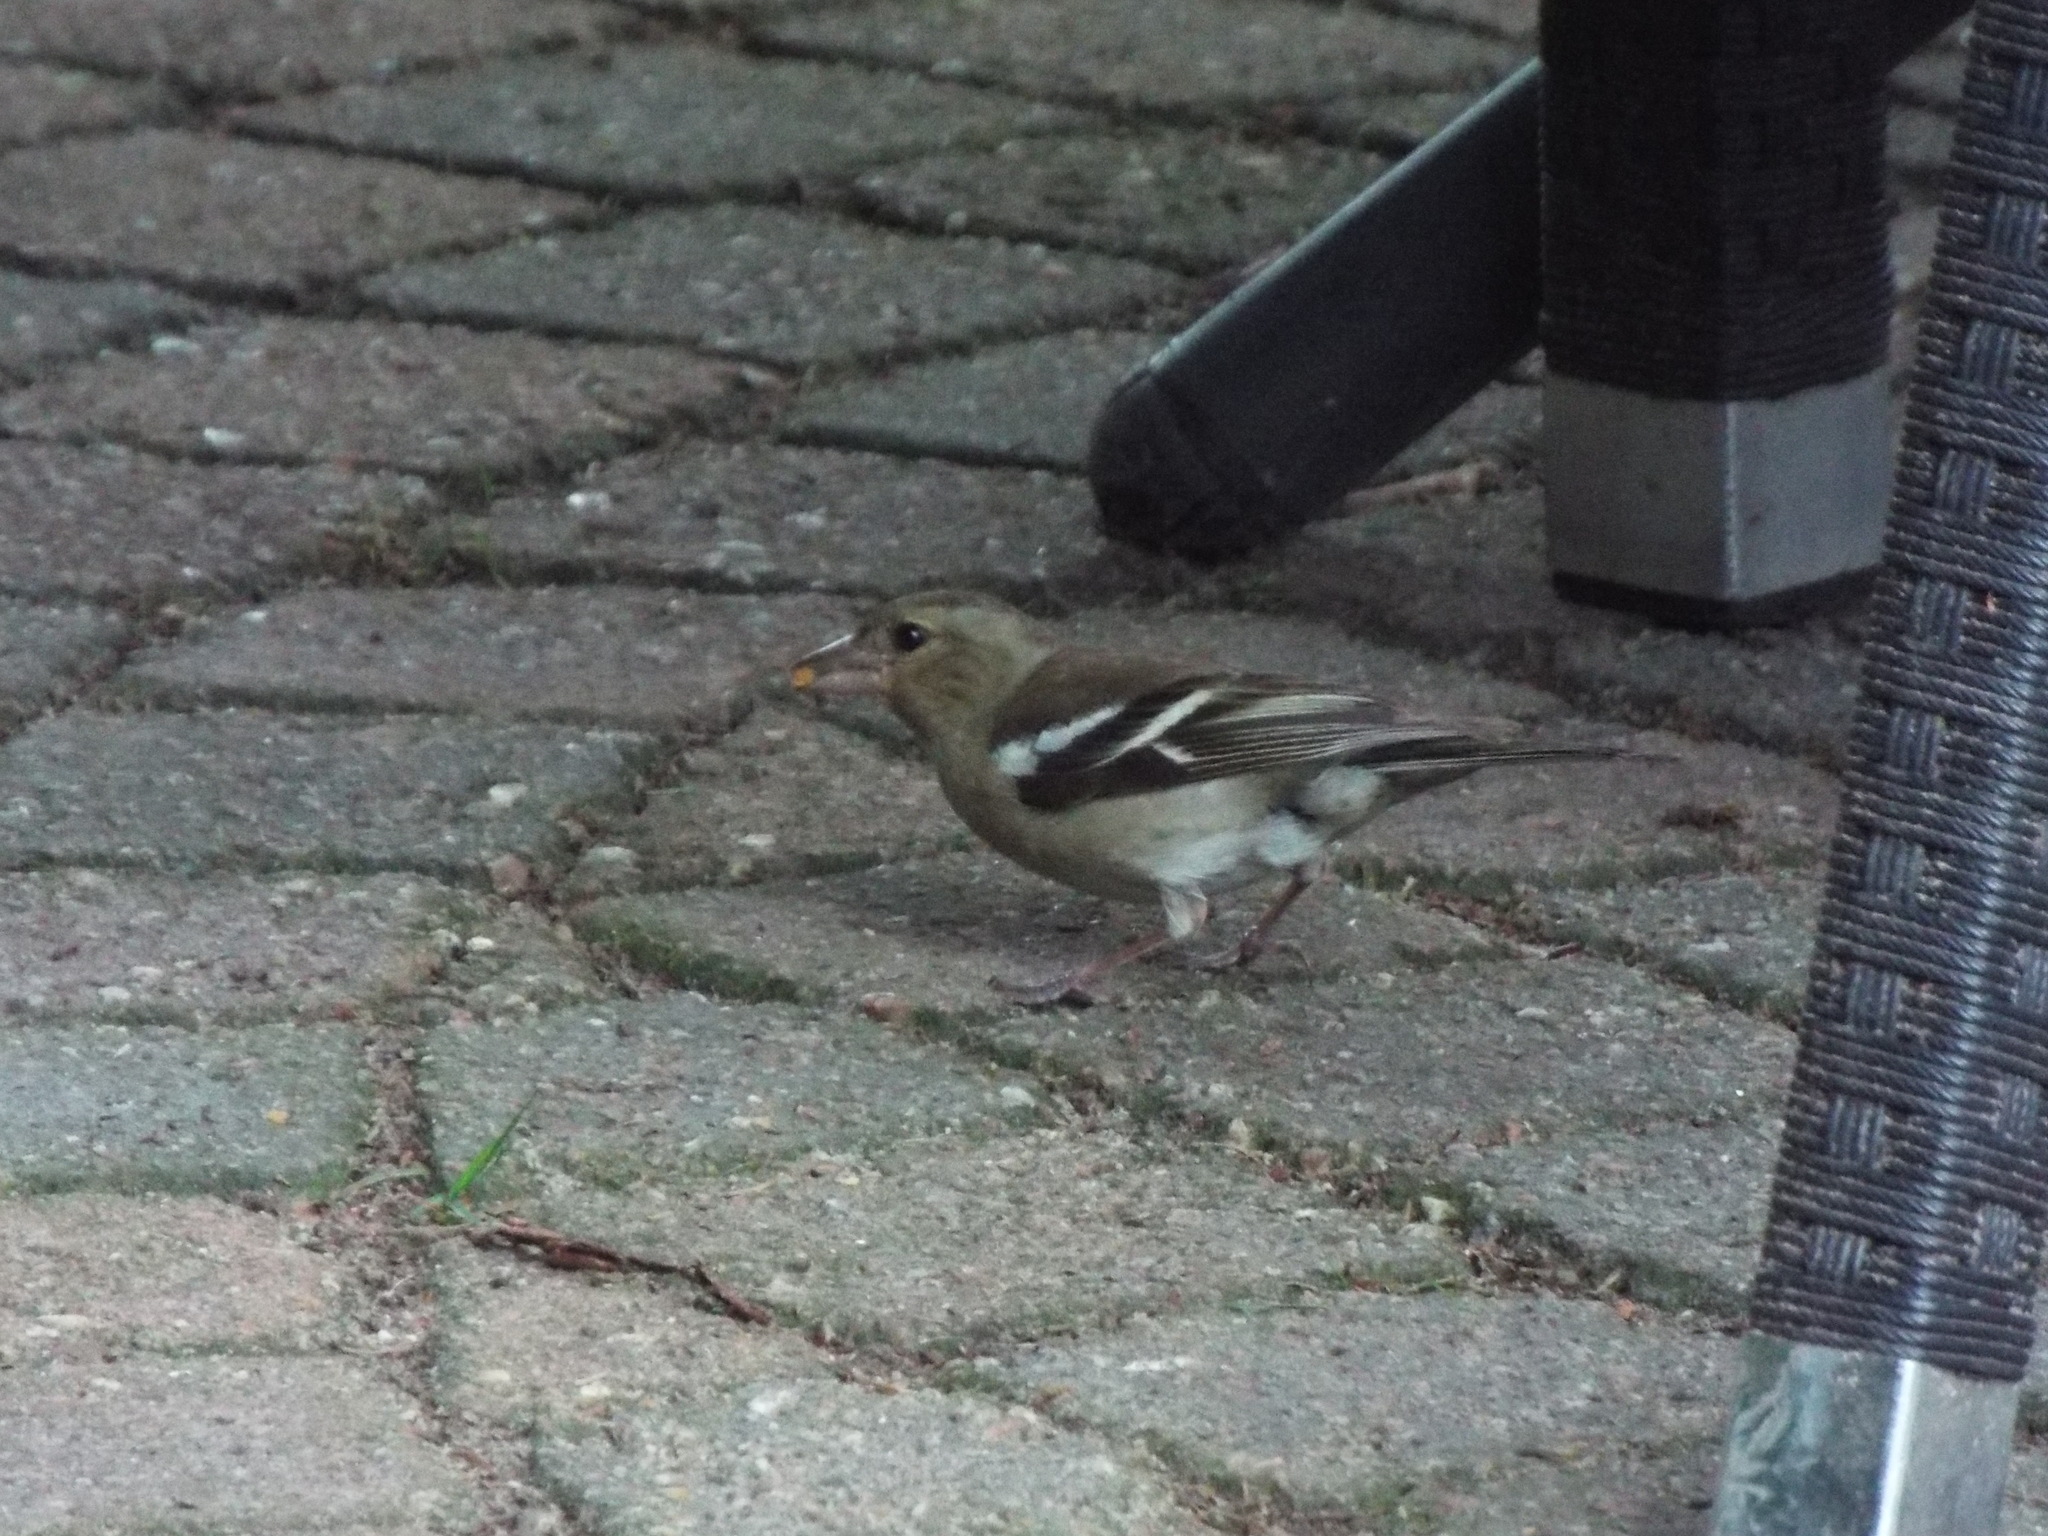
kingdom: Animalia
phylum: Chordata
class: Aves
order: Passeriformes
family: Fringillidae
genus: Fringilla
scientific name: Fringilla coelebs
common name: Common chaffinch
